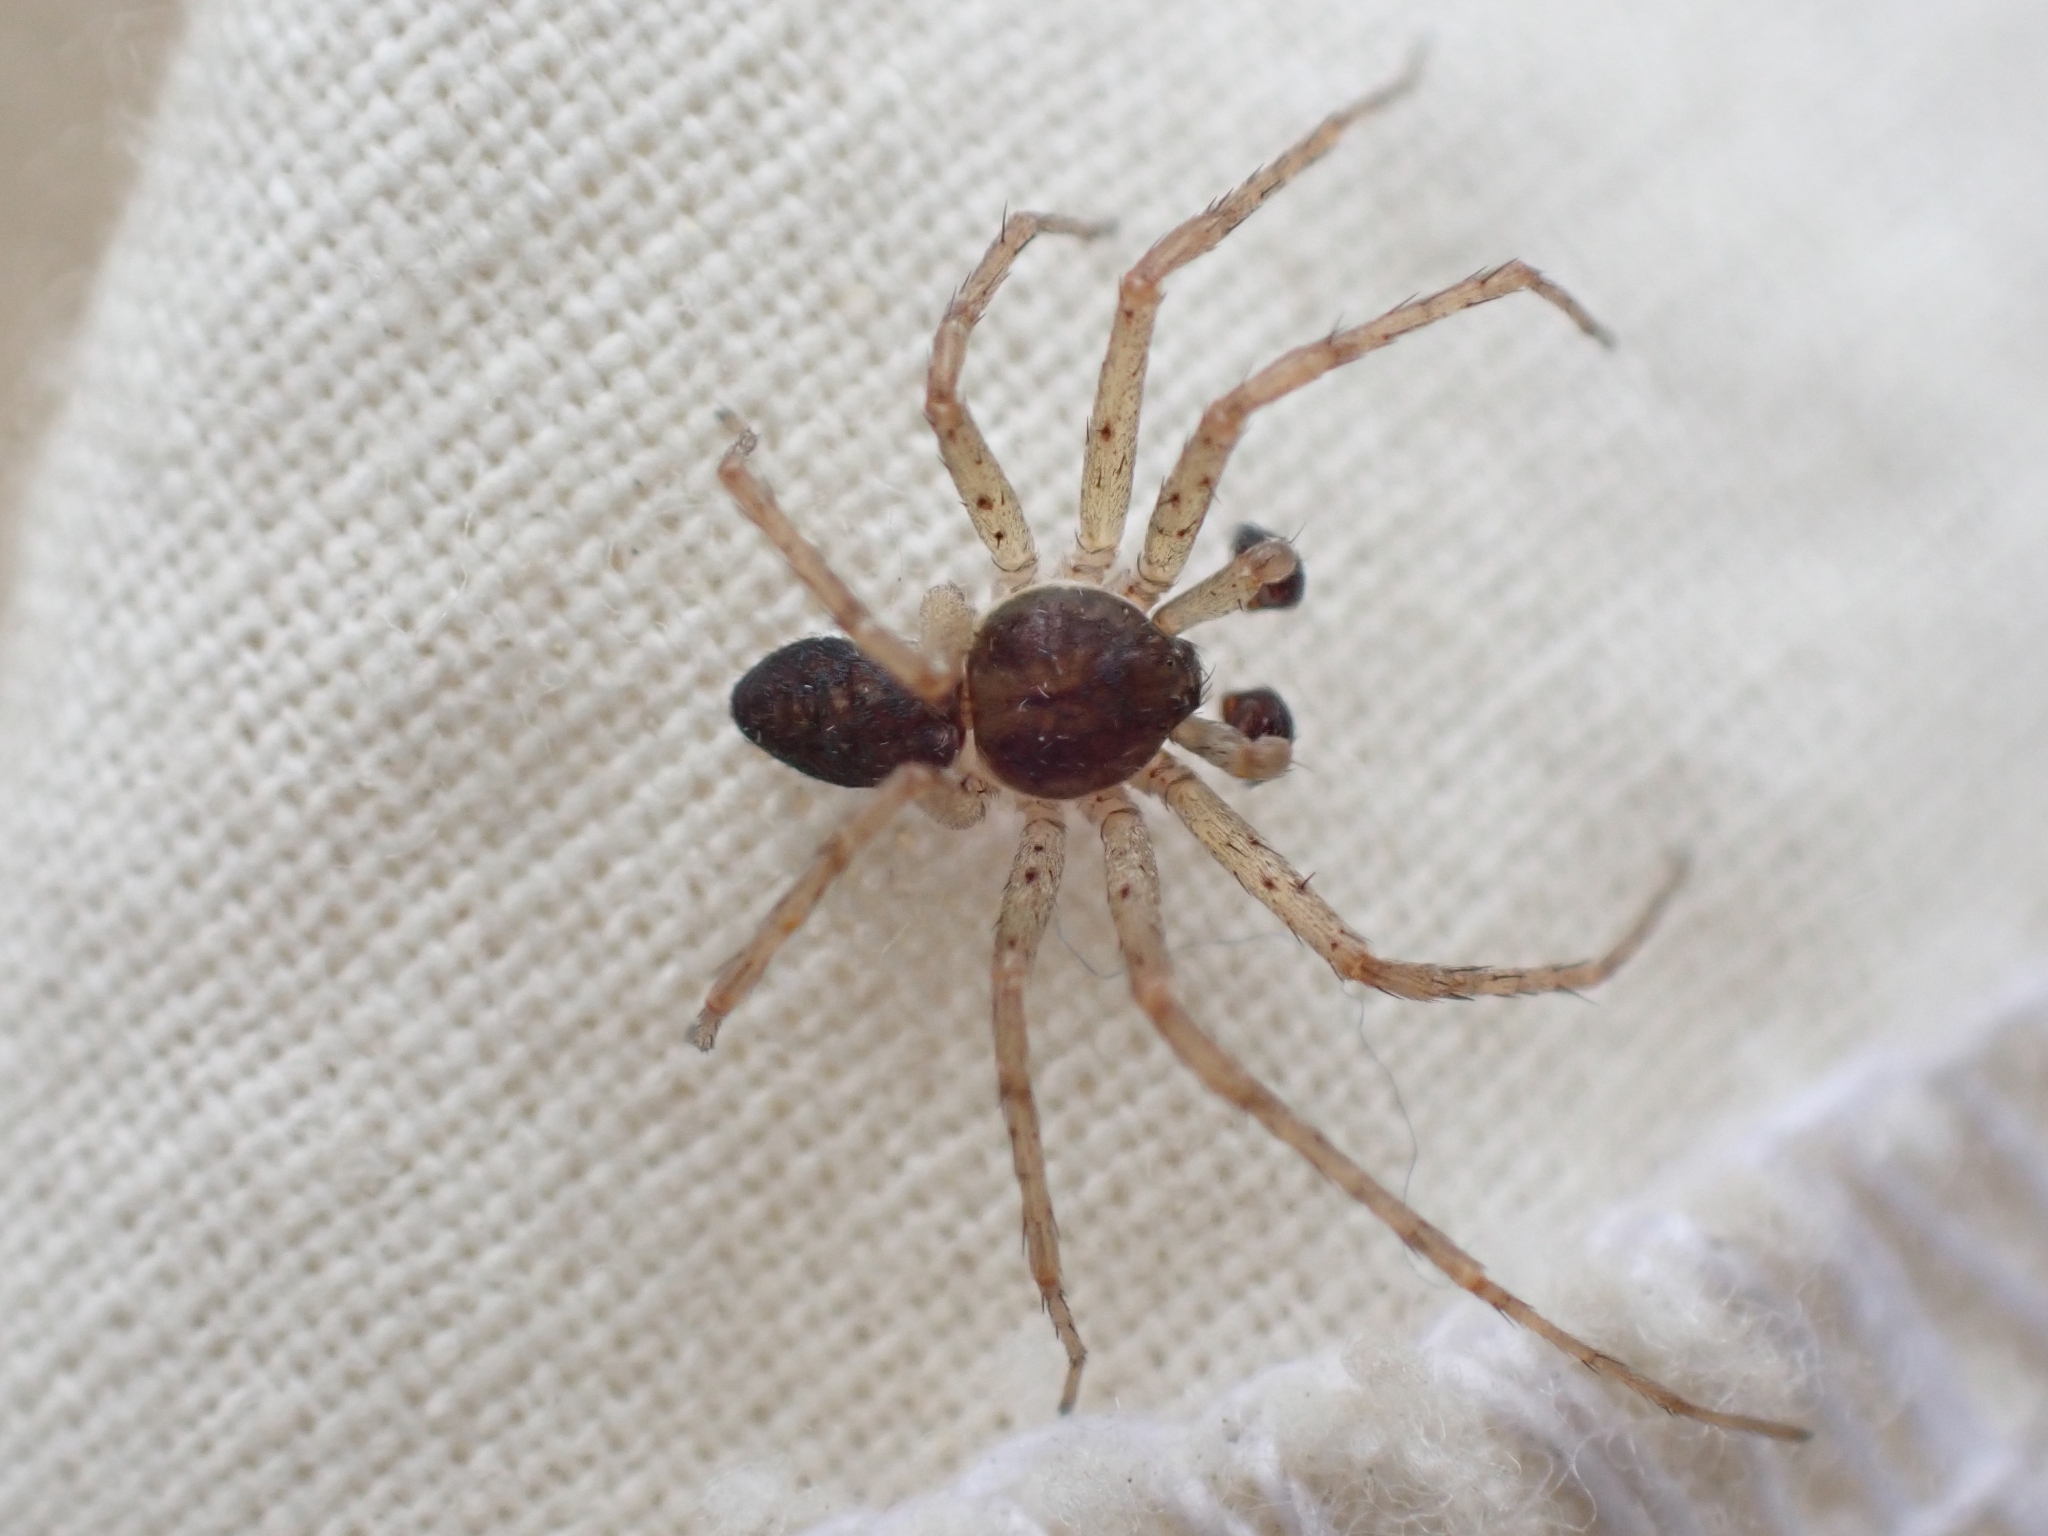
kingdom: Animalia
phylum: Arthropoda
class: Arachnida
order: Araneae
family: Philodromidae
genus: Philodromus
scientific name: Philodromus dispar
